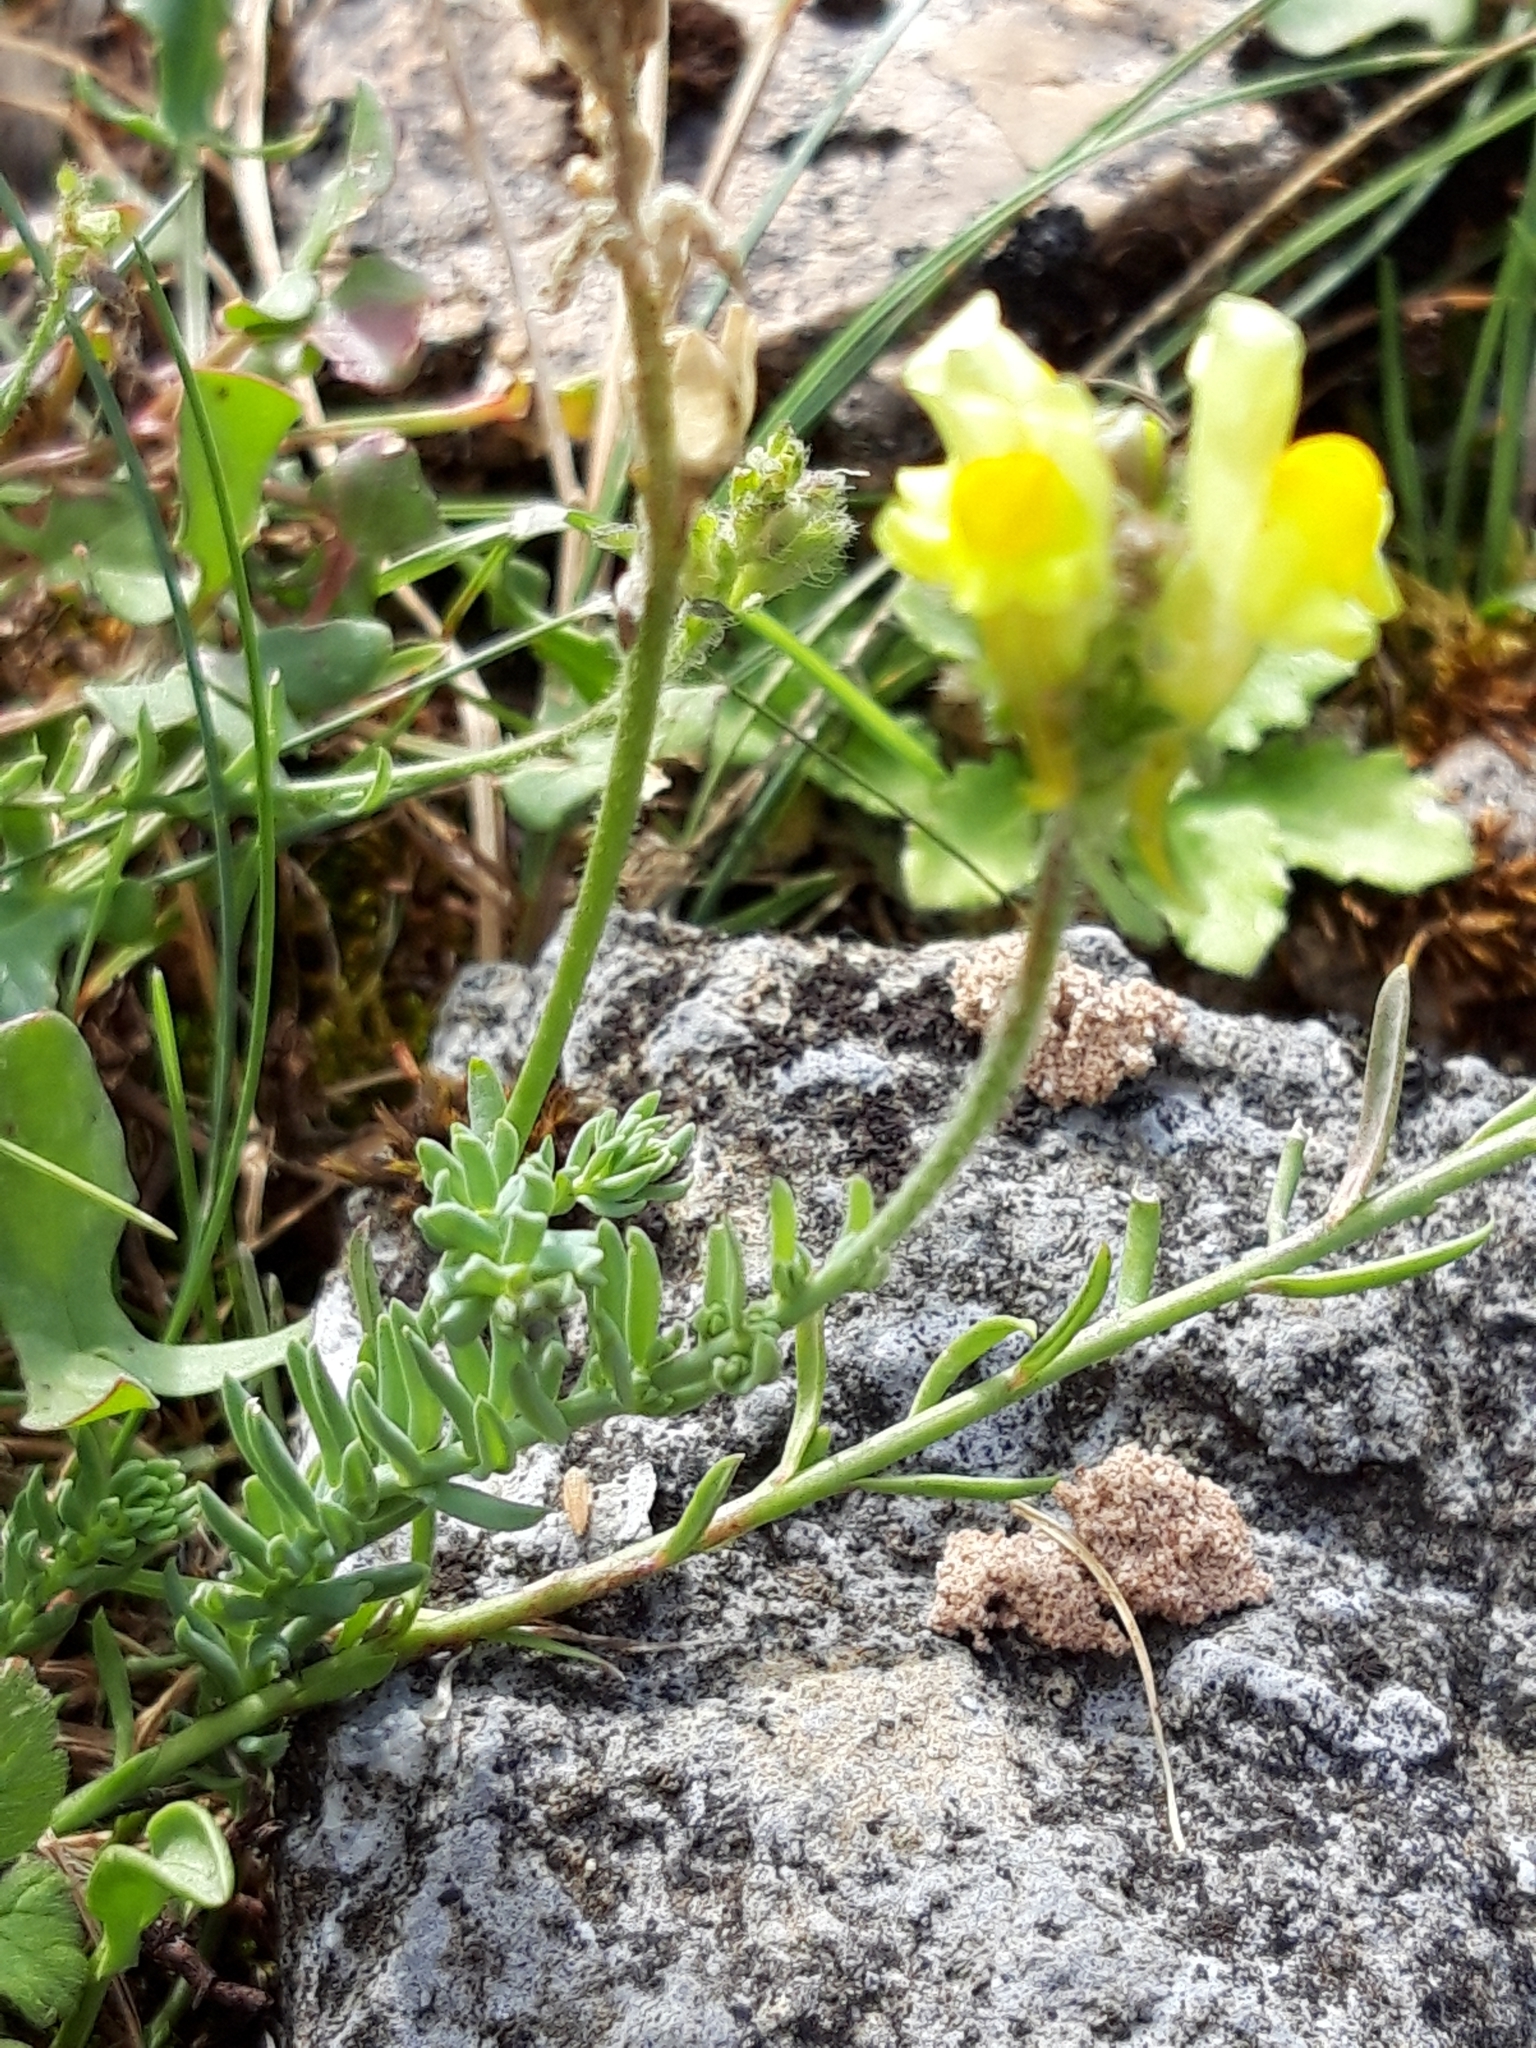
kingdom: Plantae
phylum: Tracheophyta
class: Magnoliopsida
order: Lamiales
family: Plantaginaceae
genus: Linaria
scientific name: Linaria supina
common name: Prostrate toadflax
